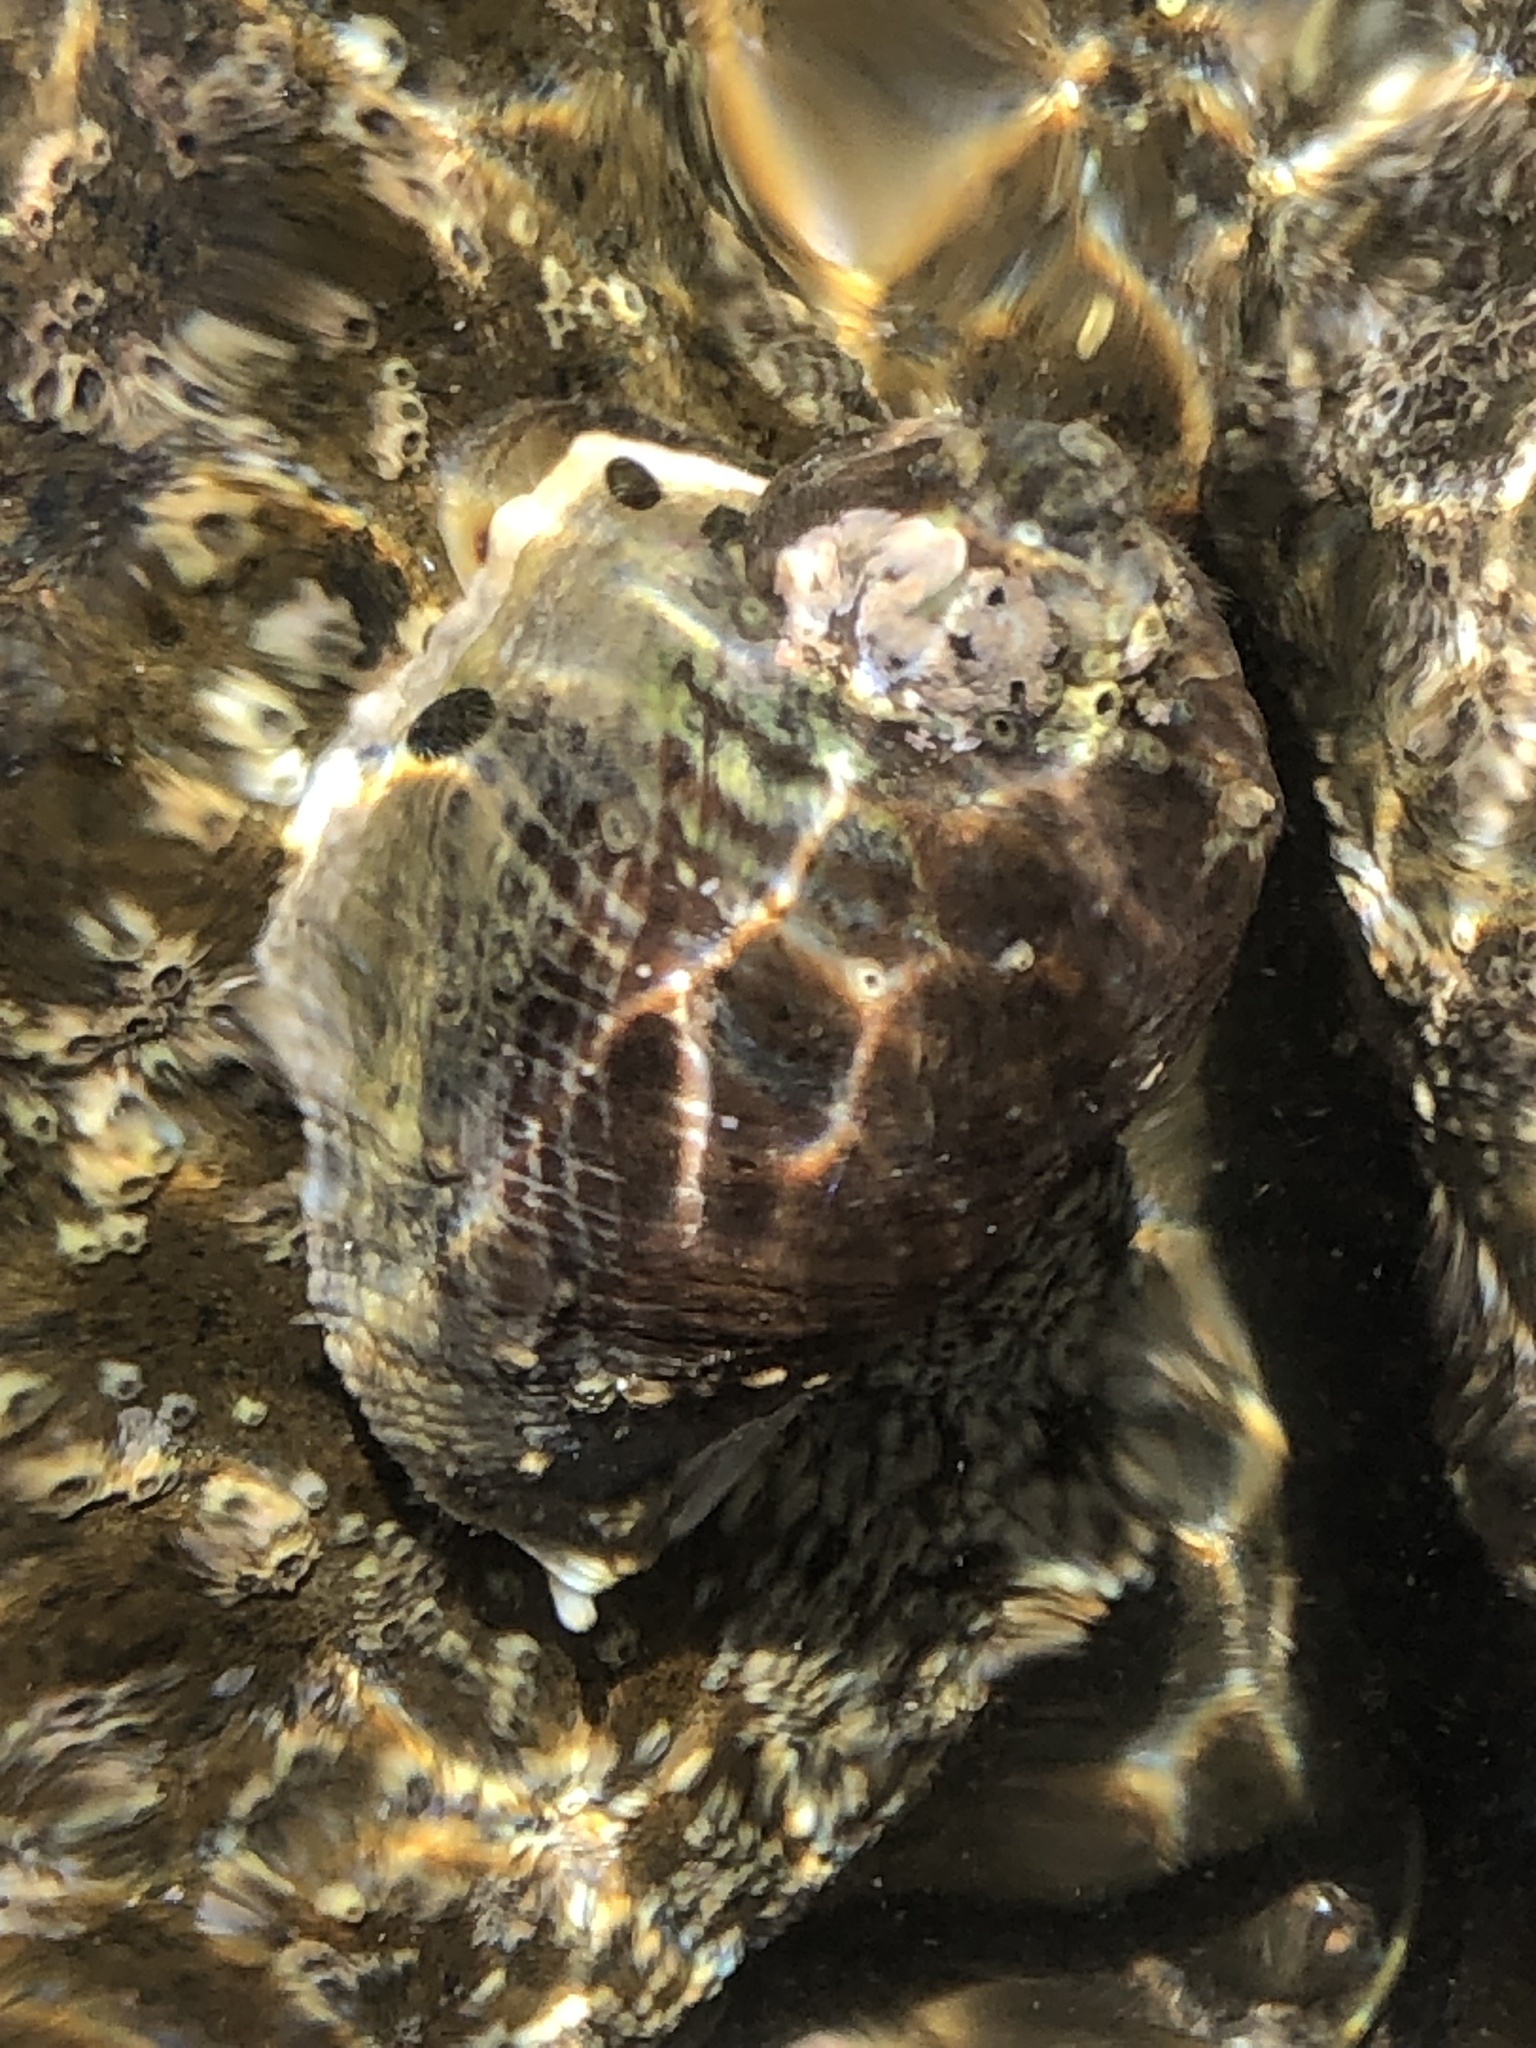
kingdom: Animalia
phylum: Mollusca
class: Gastropoda
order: Neogastropoda
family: Muricidae
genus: Haustrum
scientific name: Haustrum haustorium
